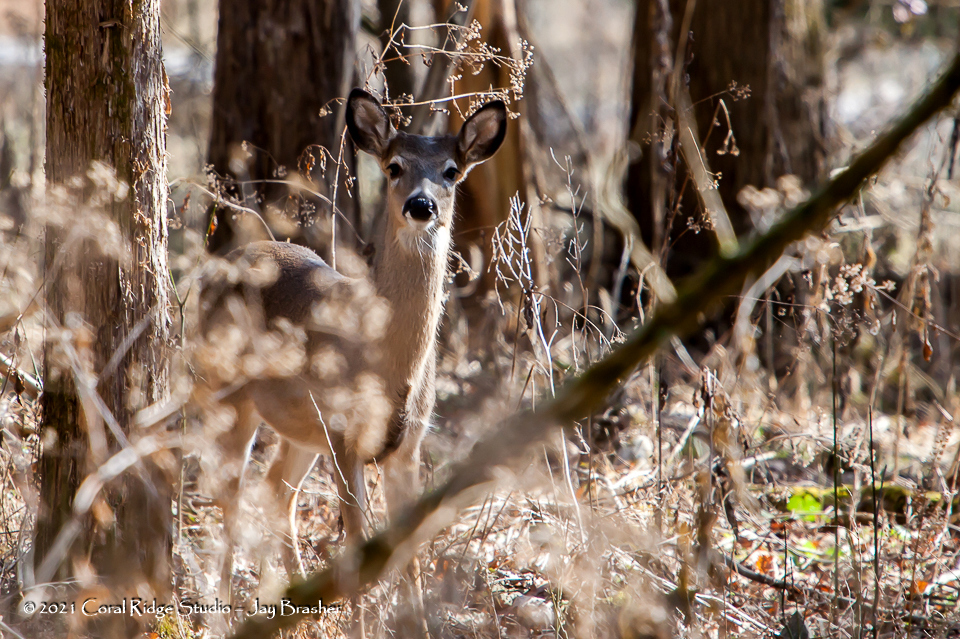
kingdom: Animalia
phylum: Chordata
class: Mammalia
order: Artiodactyla
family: Cervidae
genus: Odocoileus
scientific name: Odocoileus virginianus
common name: White-tailed deer
